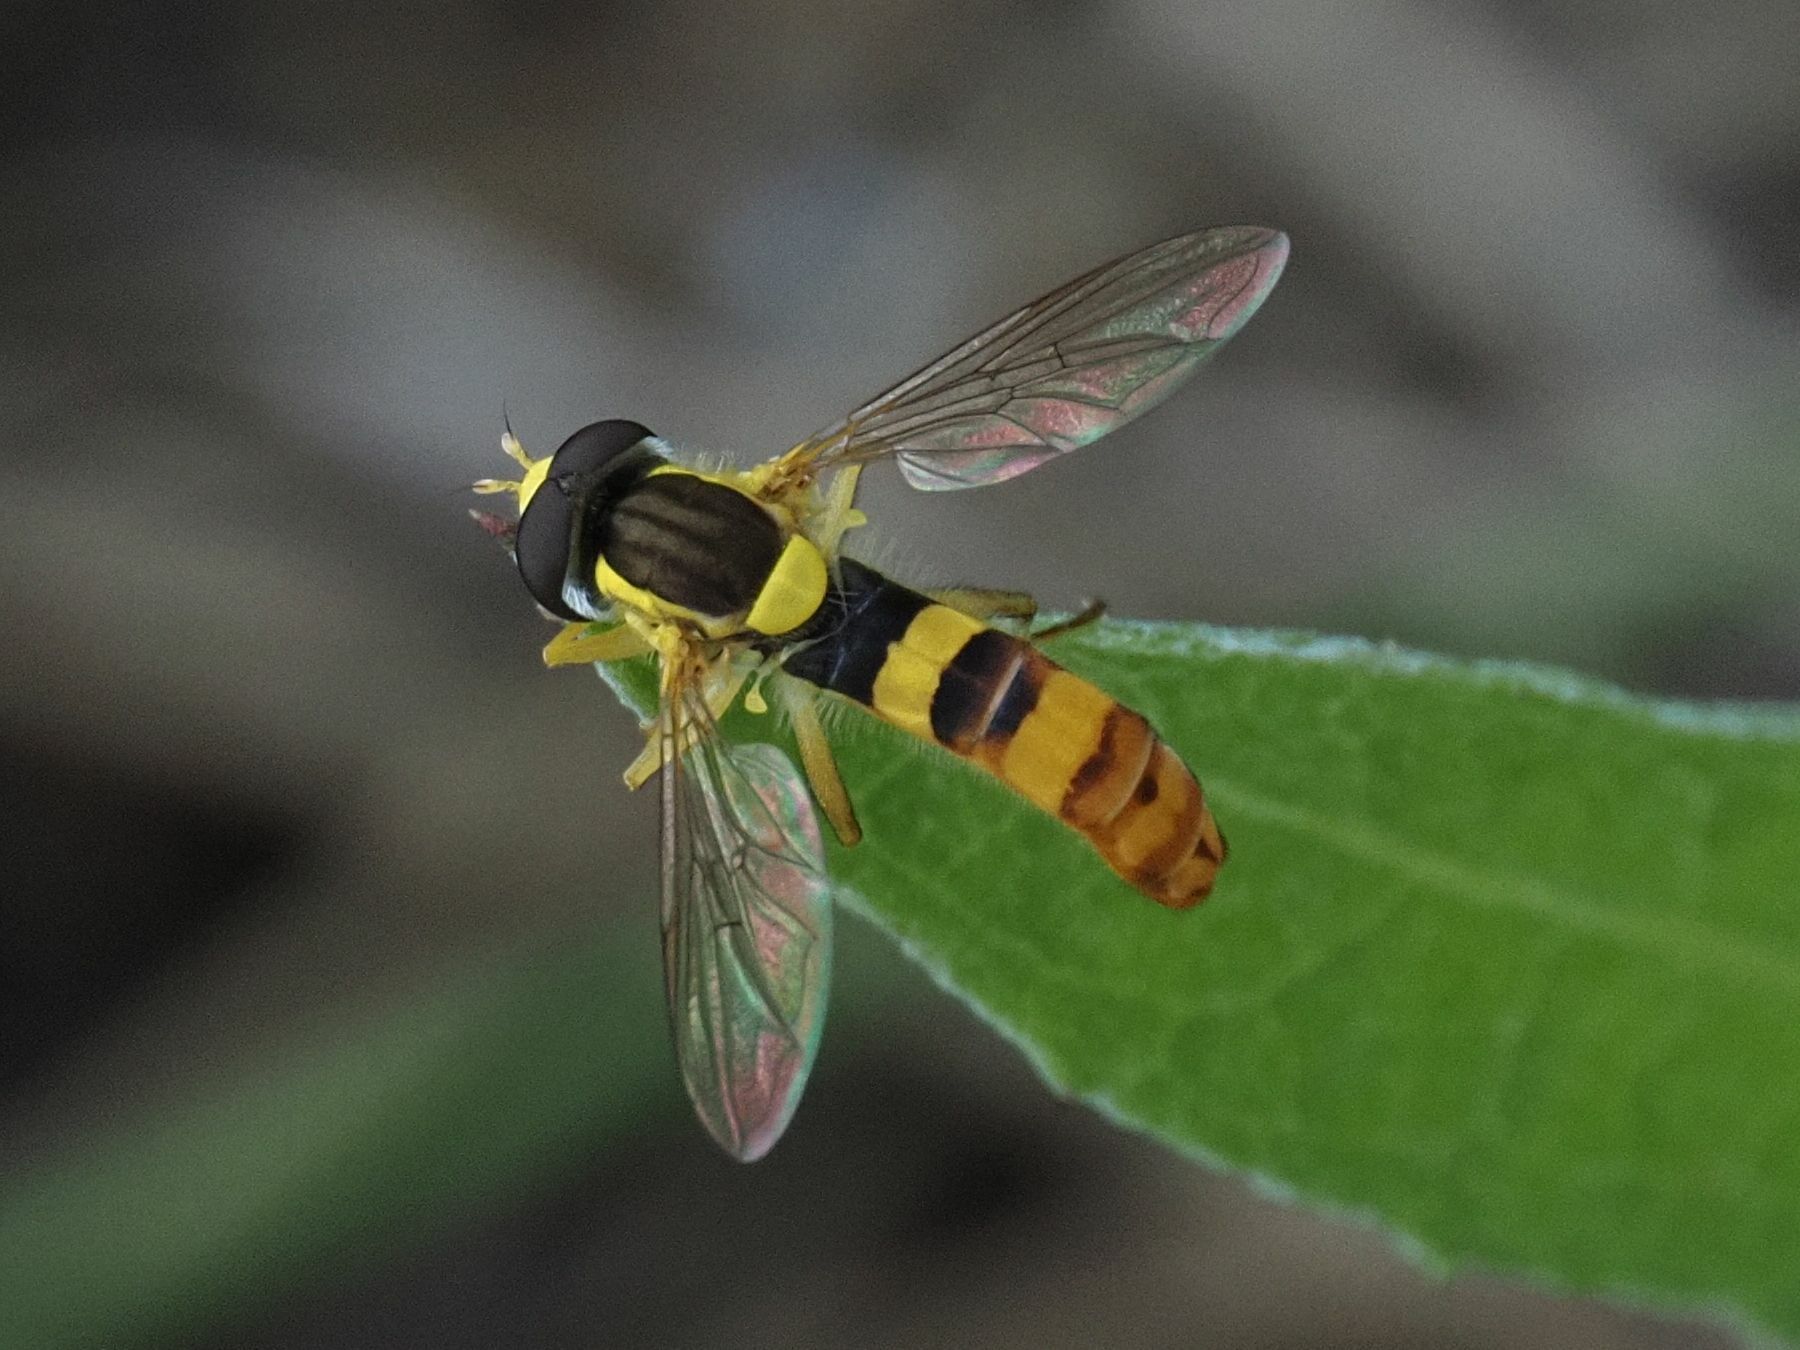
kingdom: Animalia
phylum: Arthropoda
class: Insecta
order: Diptera
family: Syrphidae
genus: Sphaerophoria
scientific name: Sphaerophoria scripta
